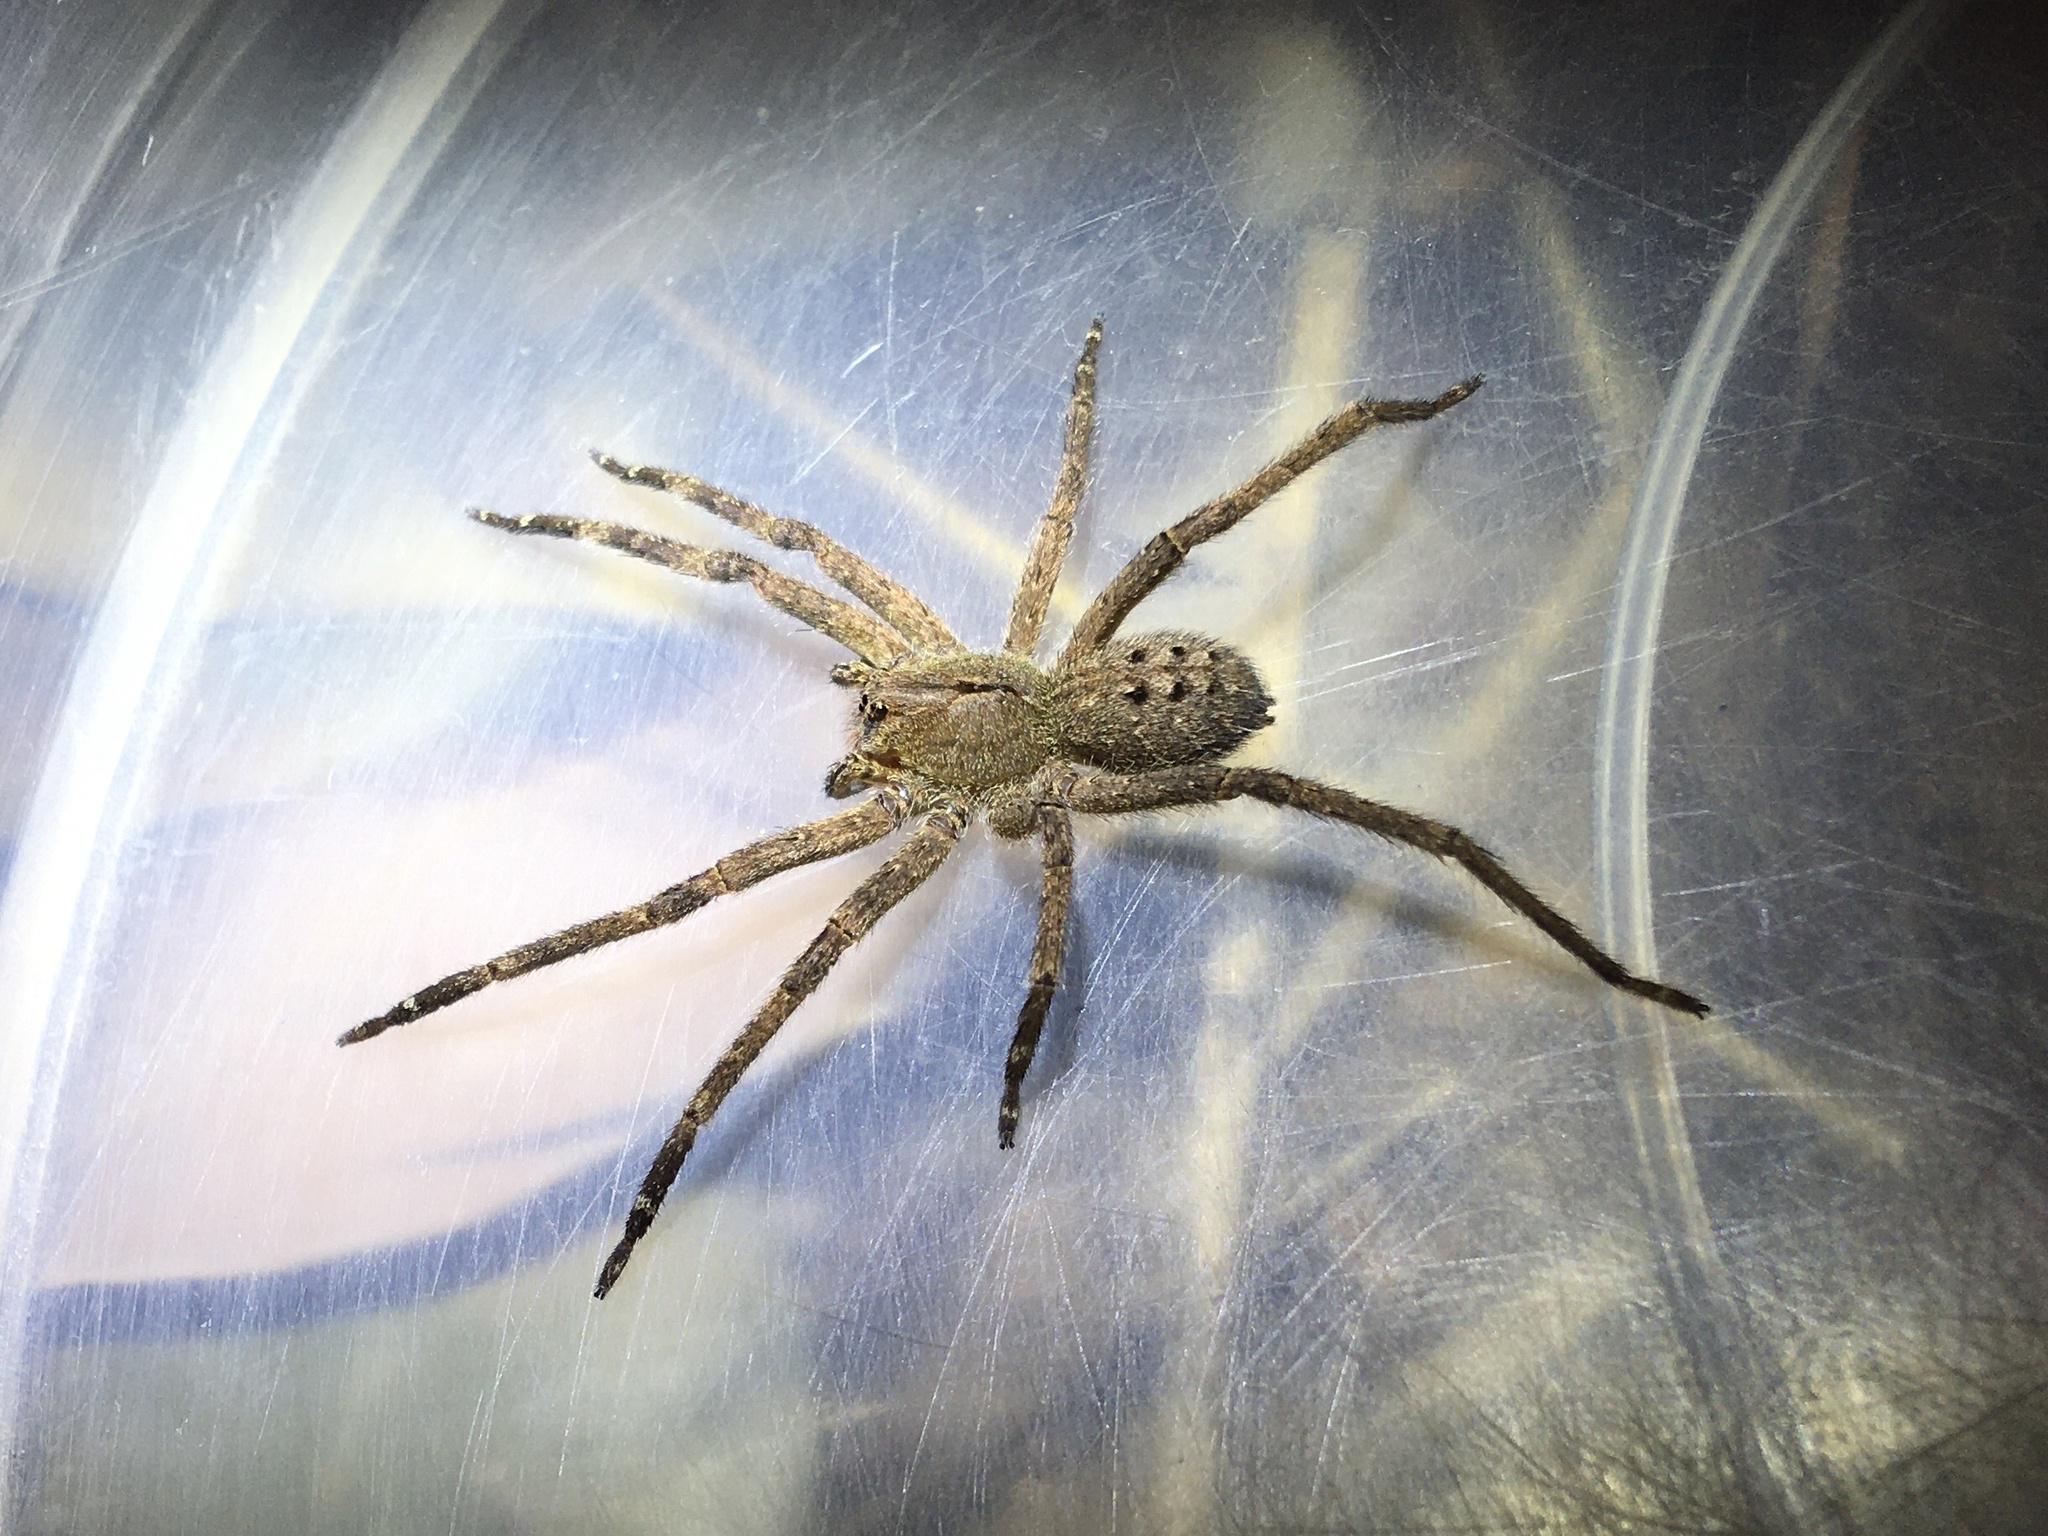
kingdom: Animalia
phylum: Arthropoda
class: Arachnida
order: Araneae
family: Ctenidae
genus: Phoneutria
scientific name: Phoneutria nigriventer
